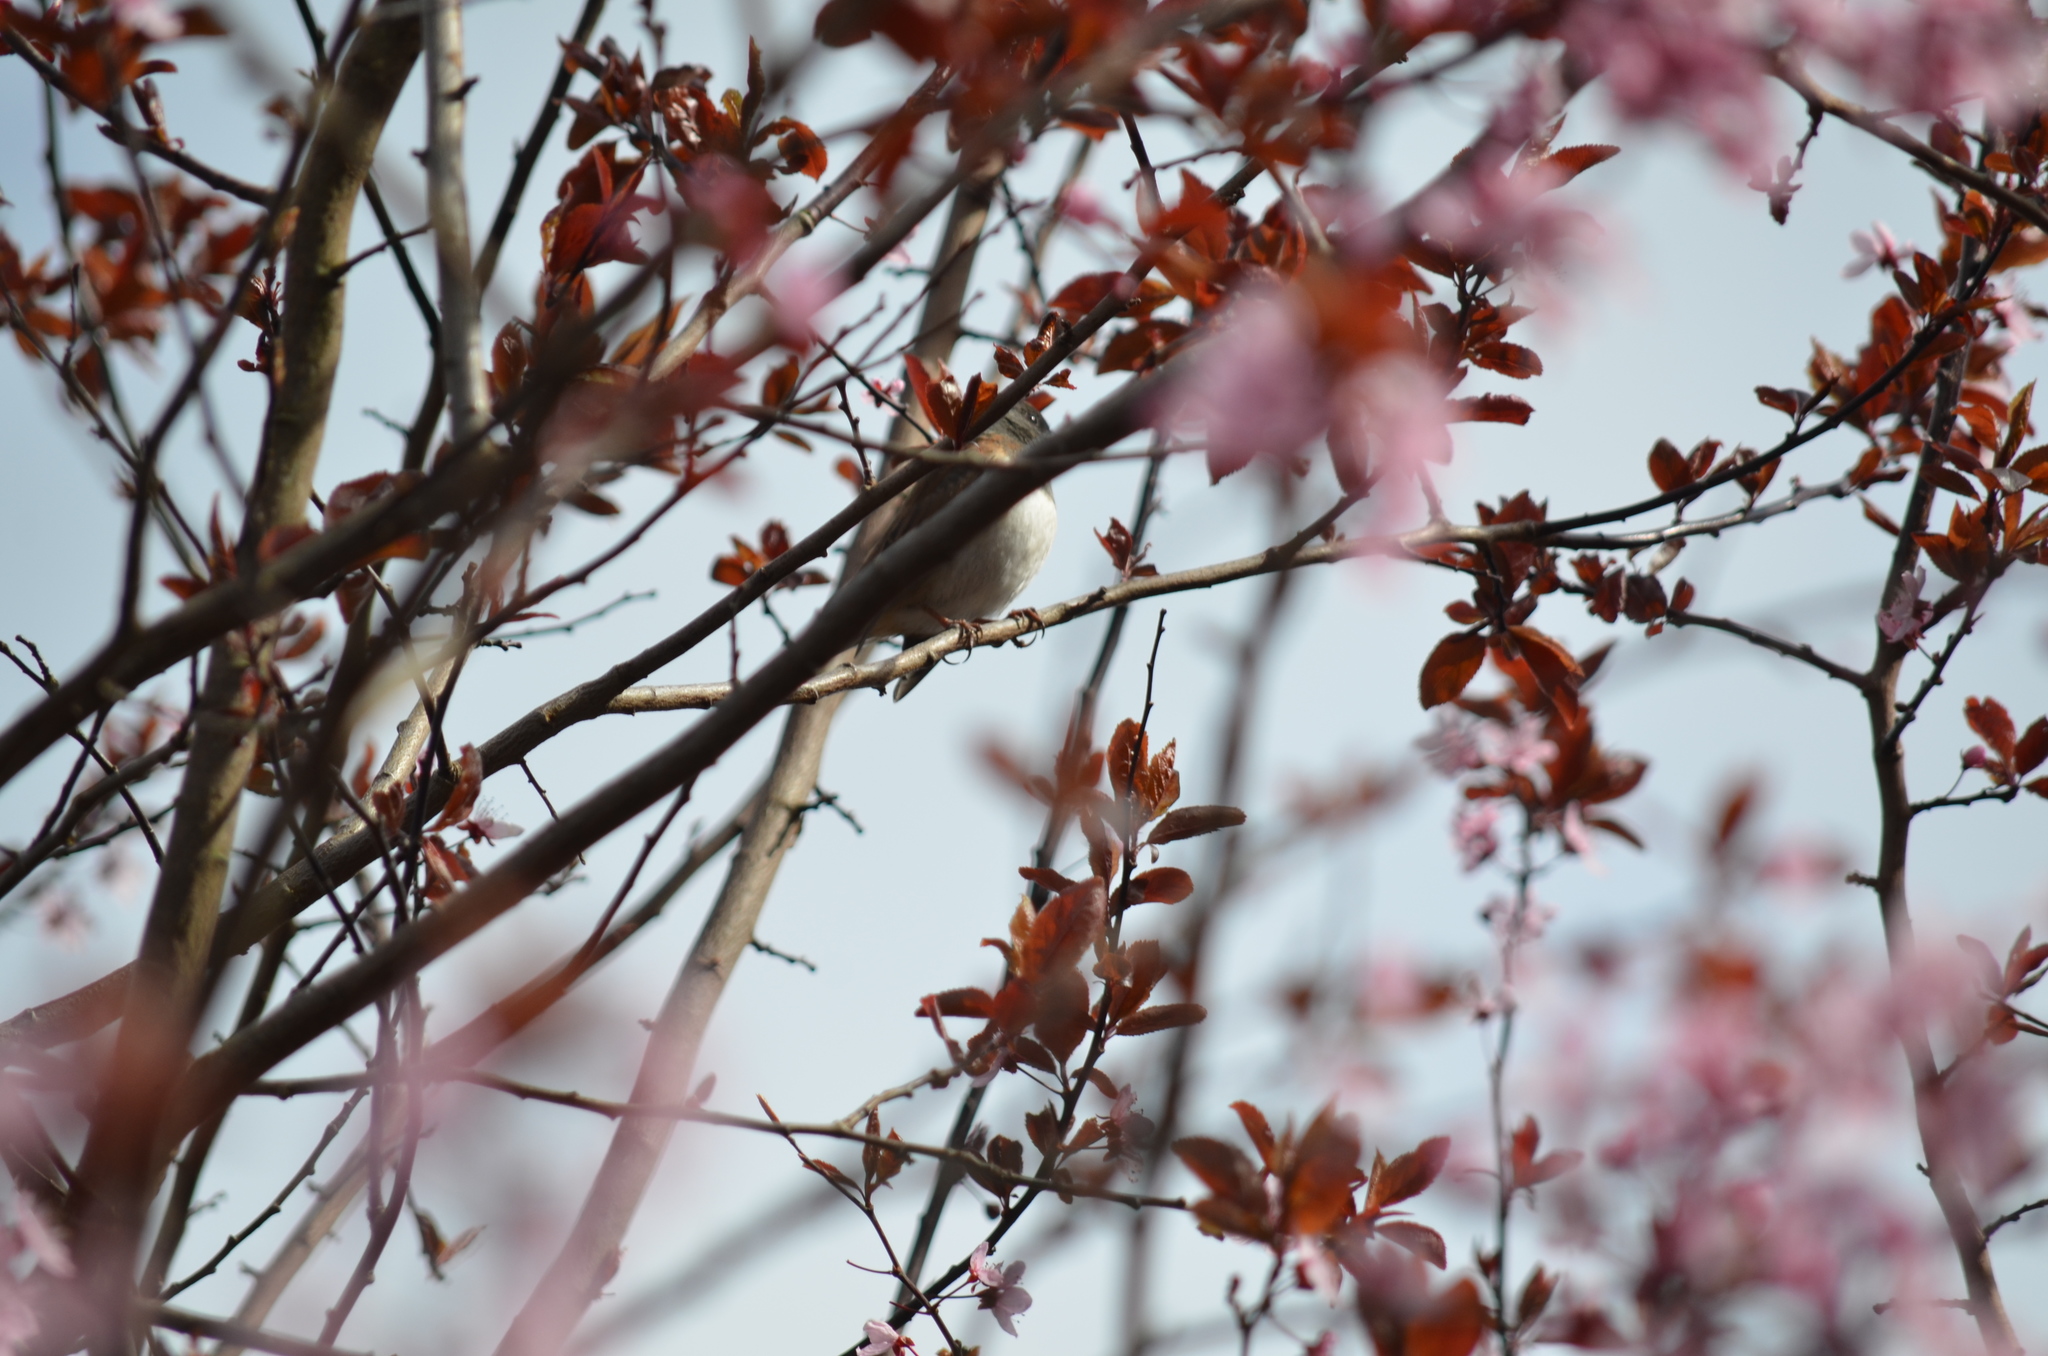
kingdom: Animalia
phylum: Chordata
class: Aves
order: Passeriformes
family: Passerellidae
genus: Junco
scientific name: Junco hyemalis
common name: Dark-eyed junco
